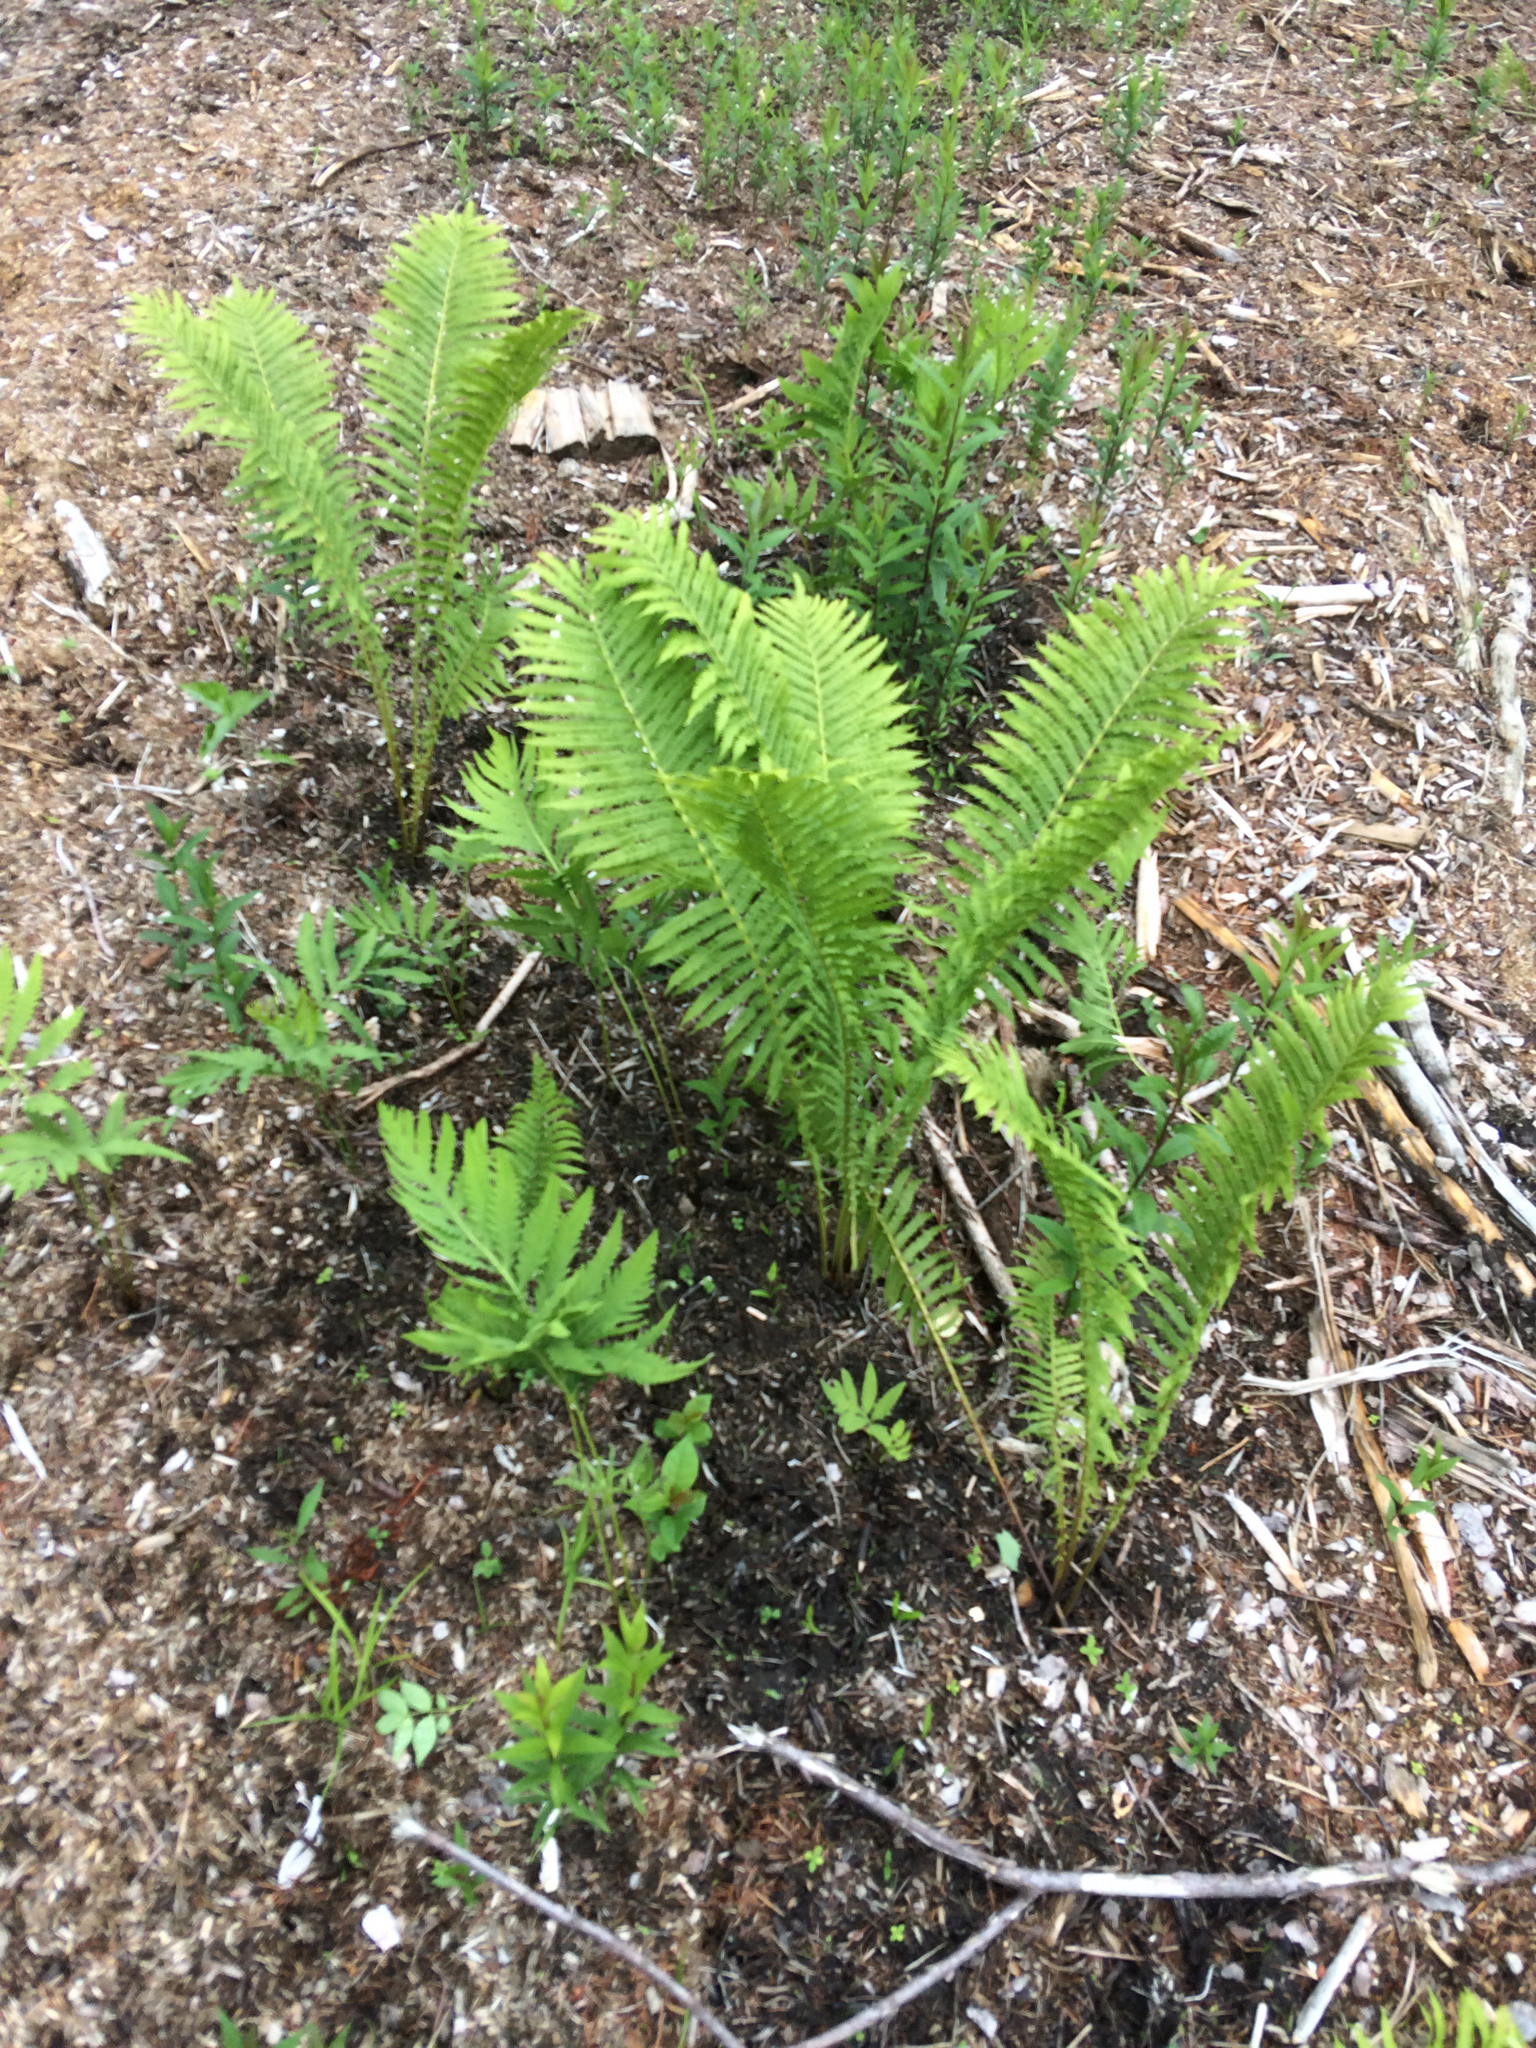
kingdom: Plantae
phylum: Tracheophyta
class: Polypodiopsida
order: Polypodiales
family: Onocleaceae
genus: Matteuccia
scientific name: Matteuccia struthiopteris
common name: Ostrich fern
